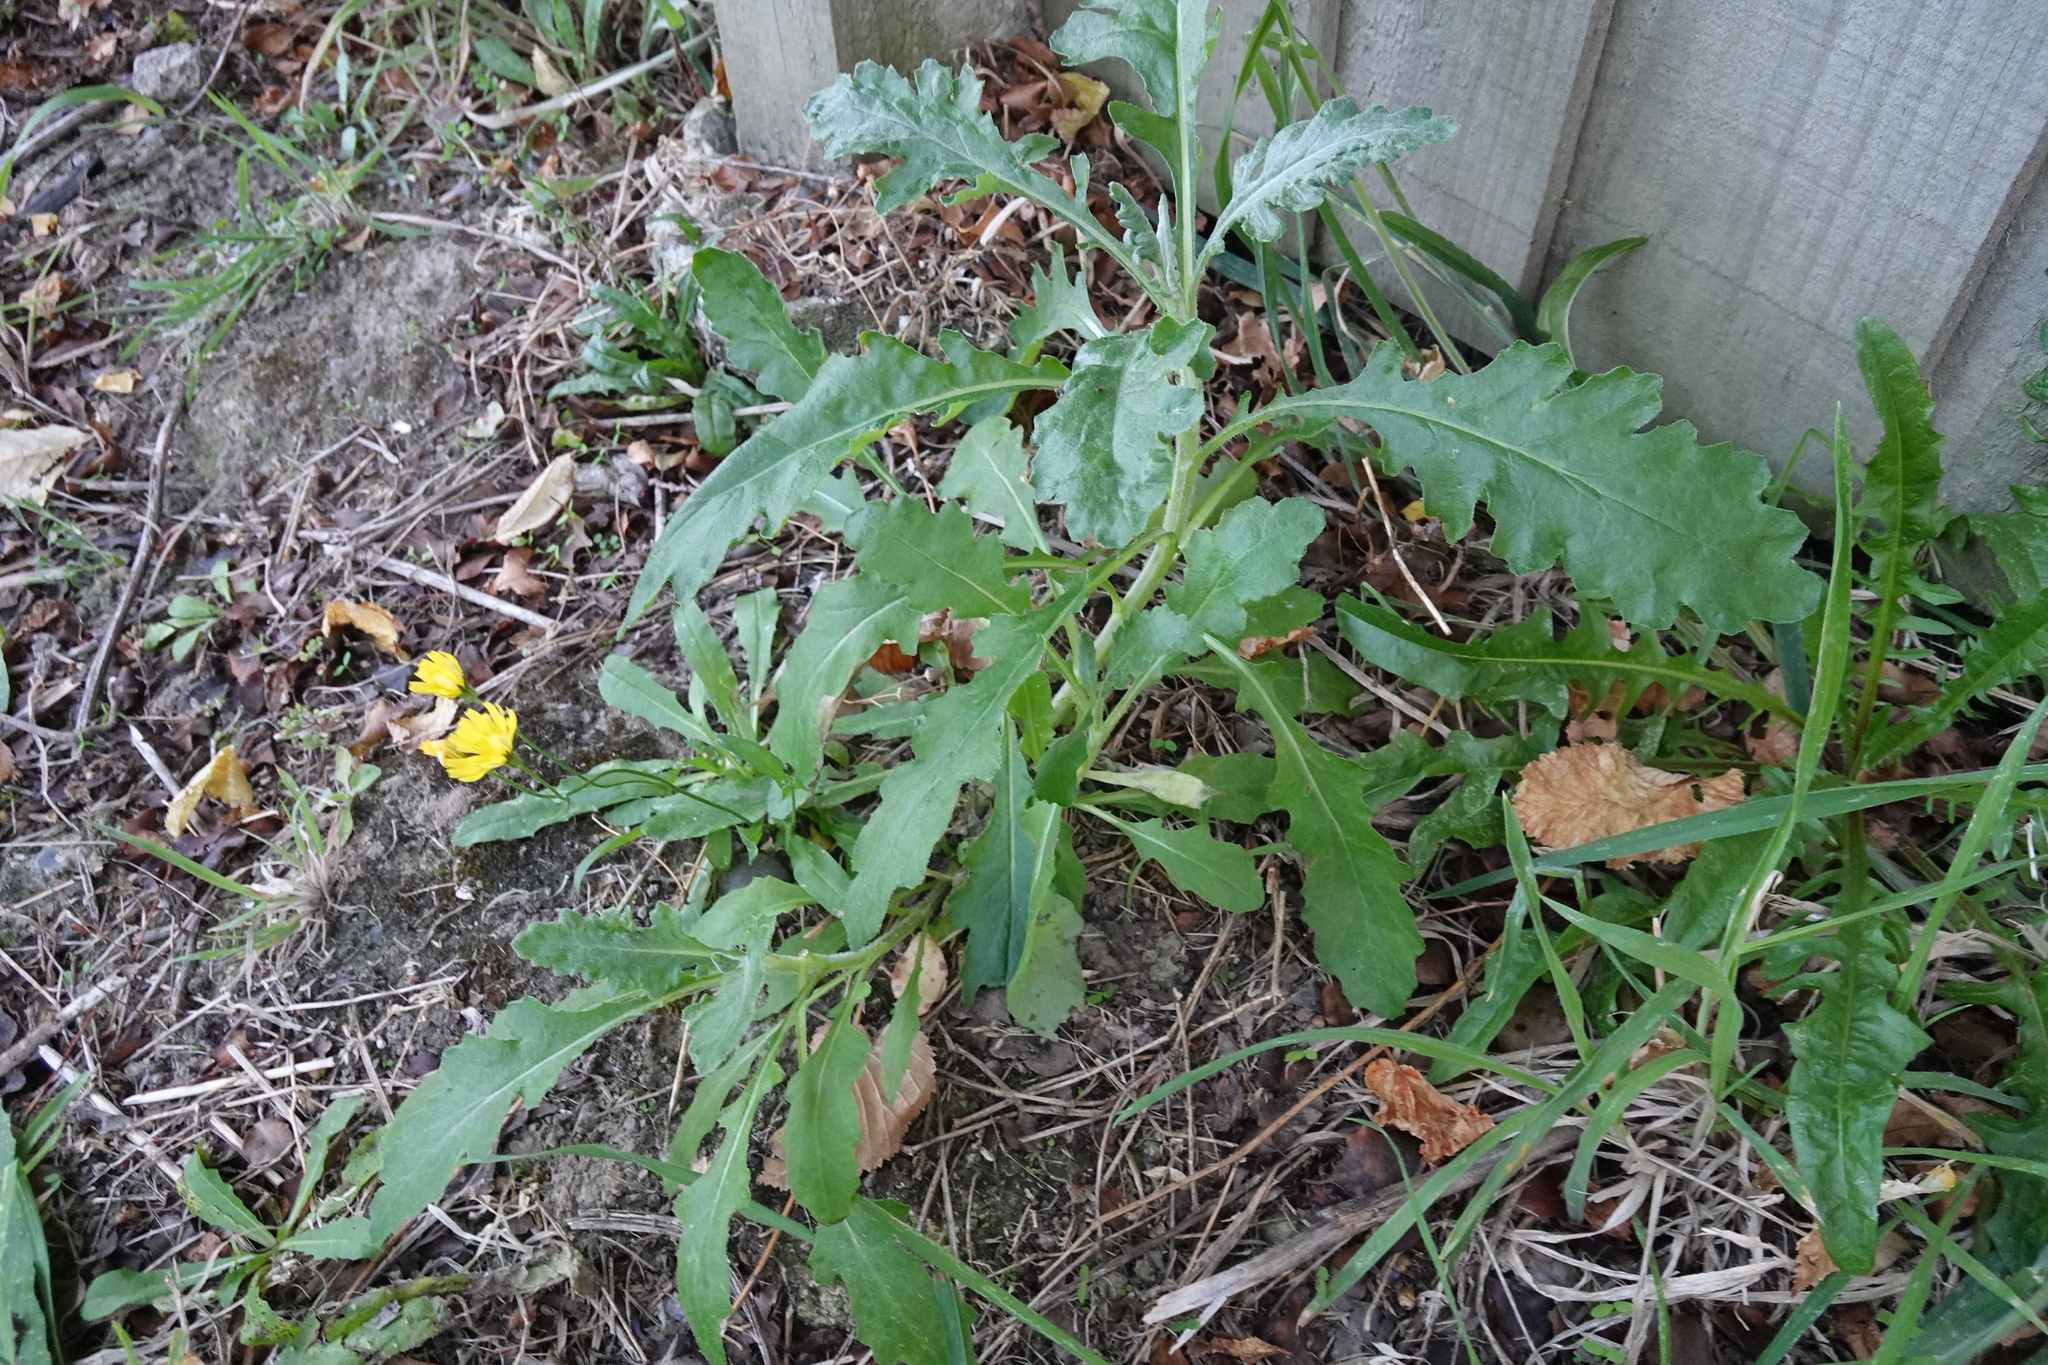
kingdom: Plantae
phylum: Tracheophyta
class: Magnoliopsida
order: Asterales
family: Asteraceae
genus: Senecio
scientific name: Senecio glomeratus
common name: Cutleaf burnweed
